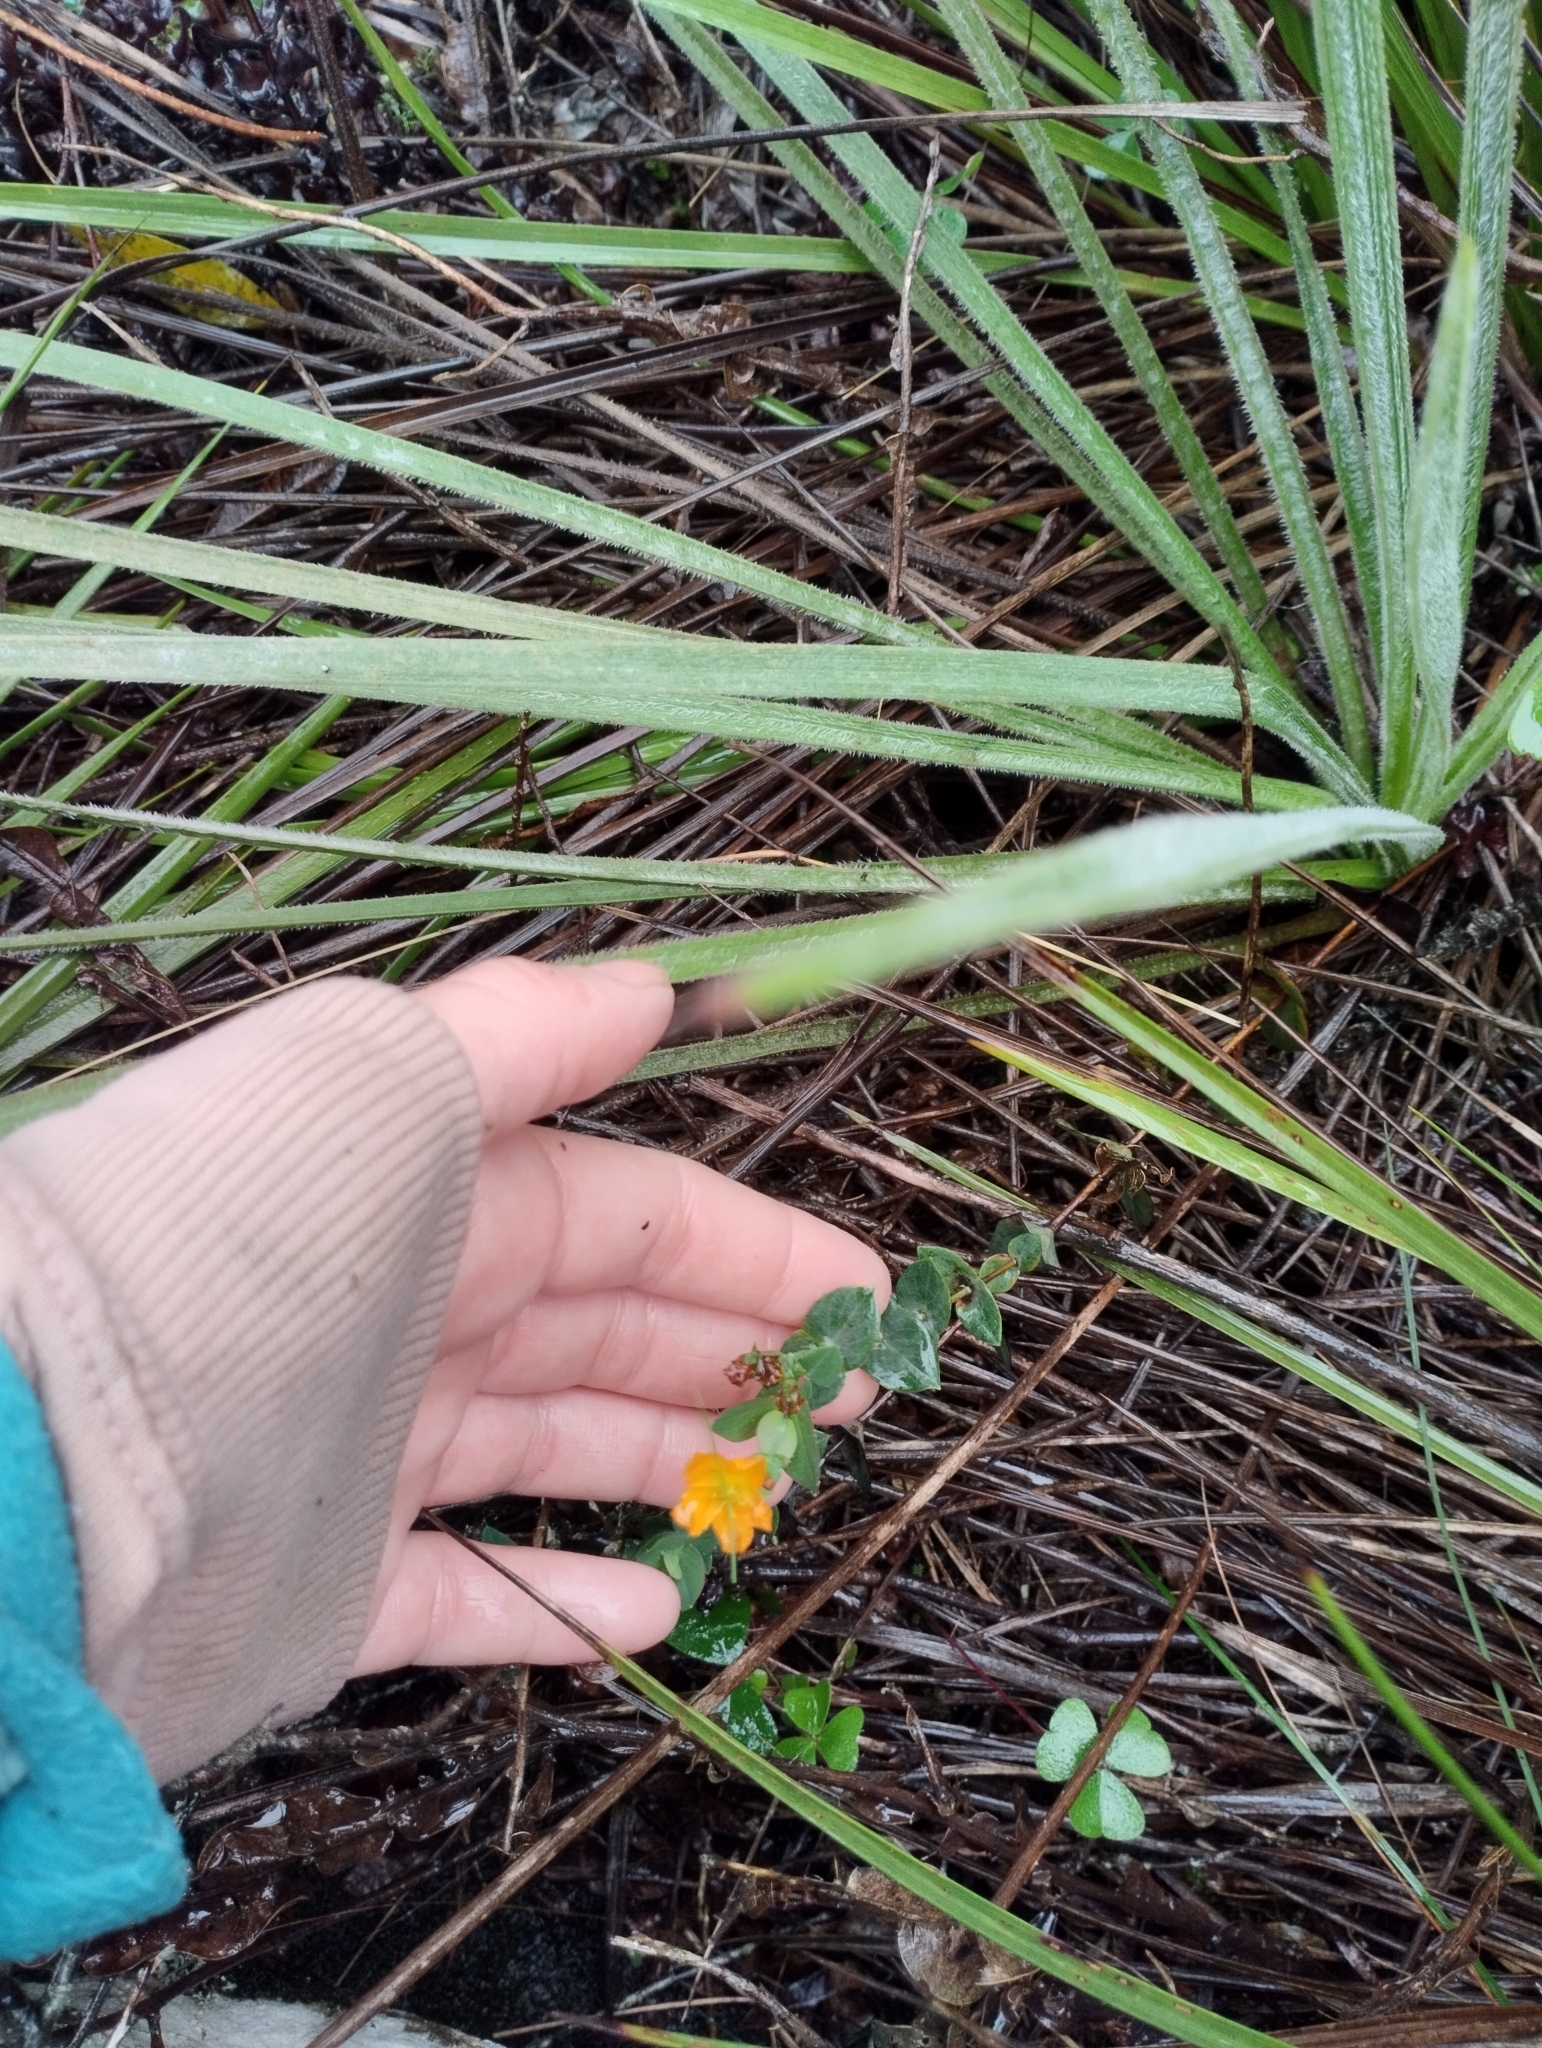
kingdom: Plantae
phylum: Tracheophyta
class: Magnoliopsida
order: Malpighiales
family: Hypericaceae
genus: Hypericum
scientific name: Hypericum connatum
